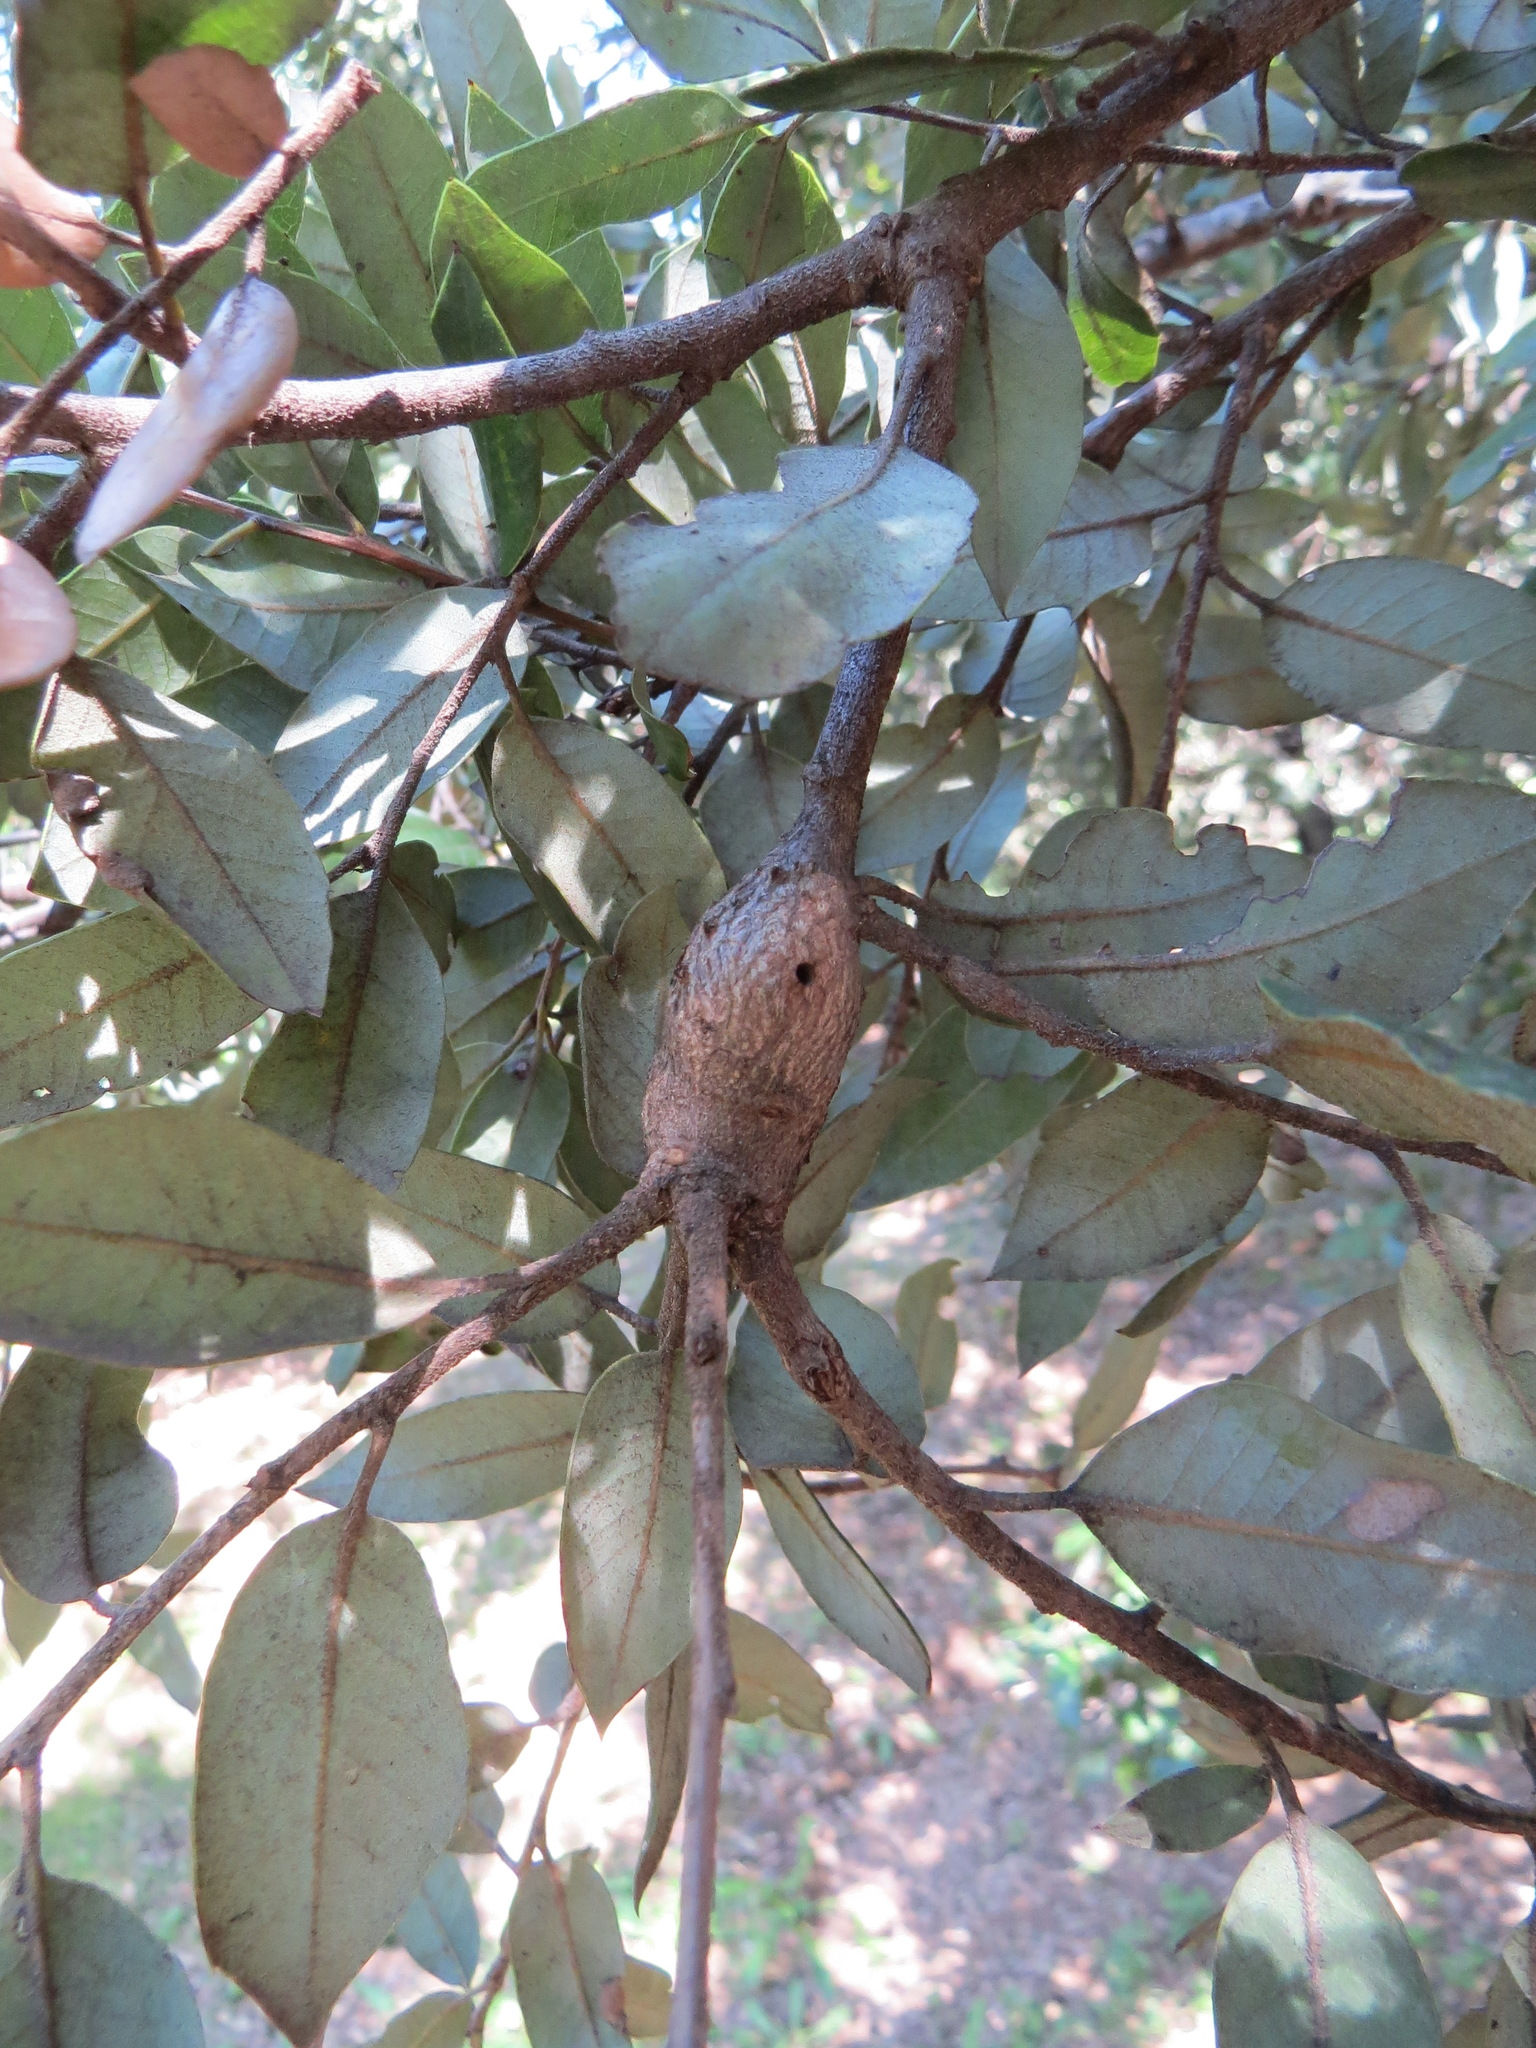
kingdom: Animalia
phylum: Arthropoda
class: Insecta
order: Hymenoptera
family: Cynipidae
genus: Disholcaspis
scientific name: Disholcaspis spectabilis
